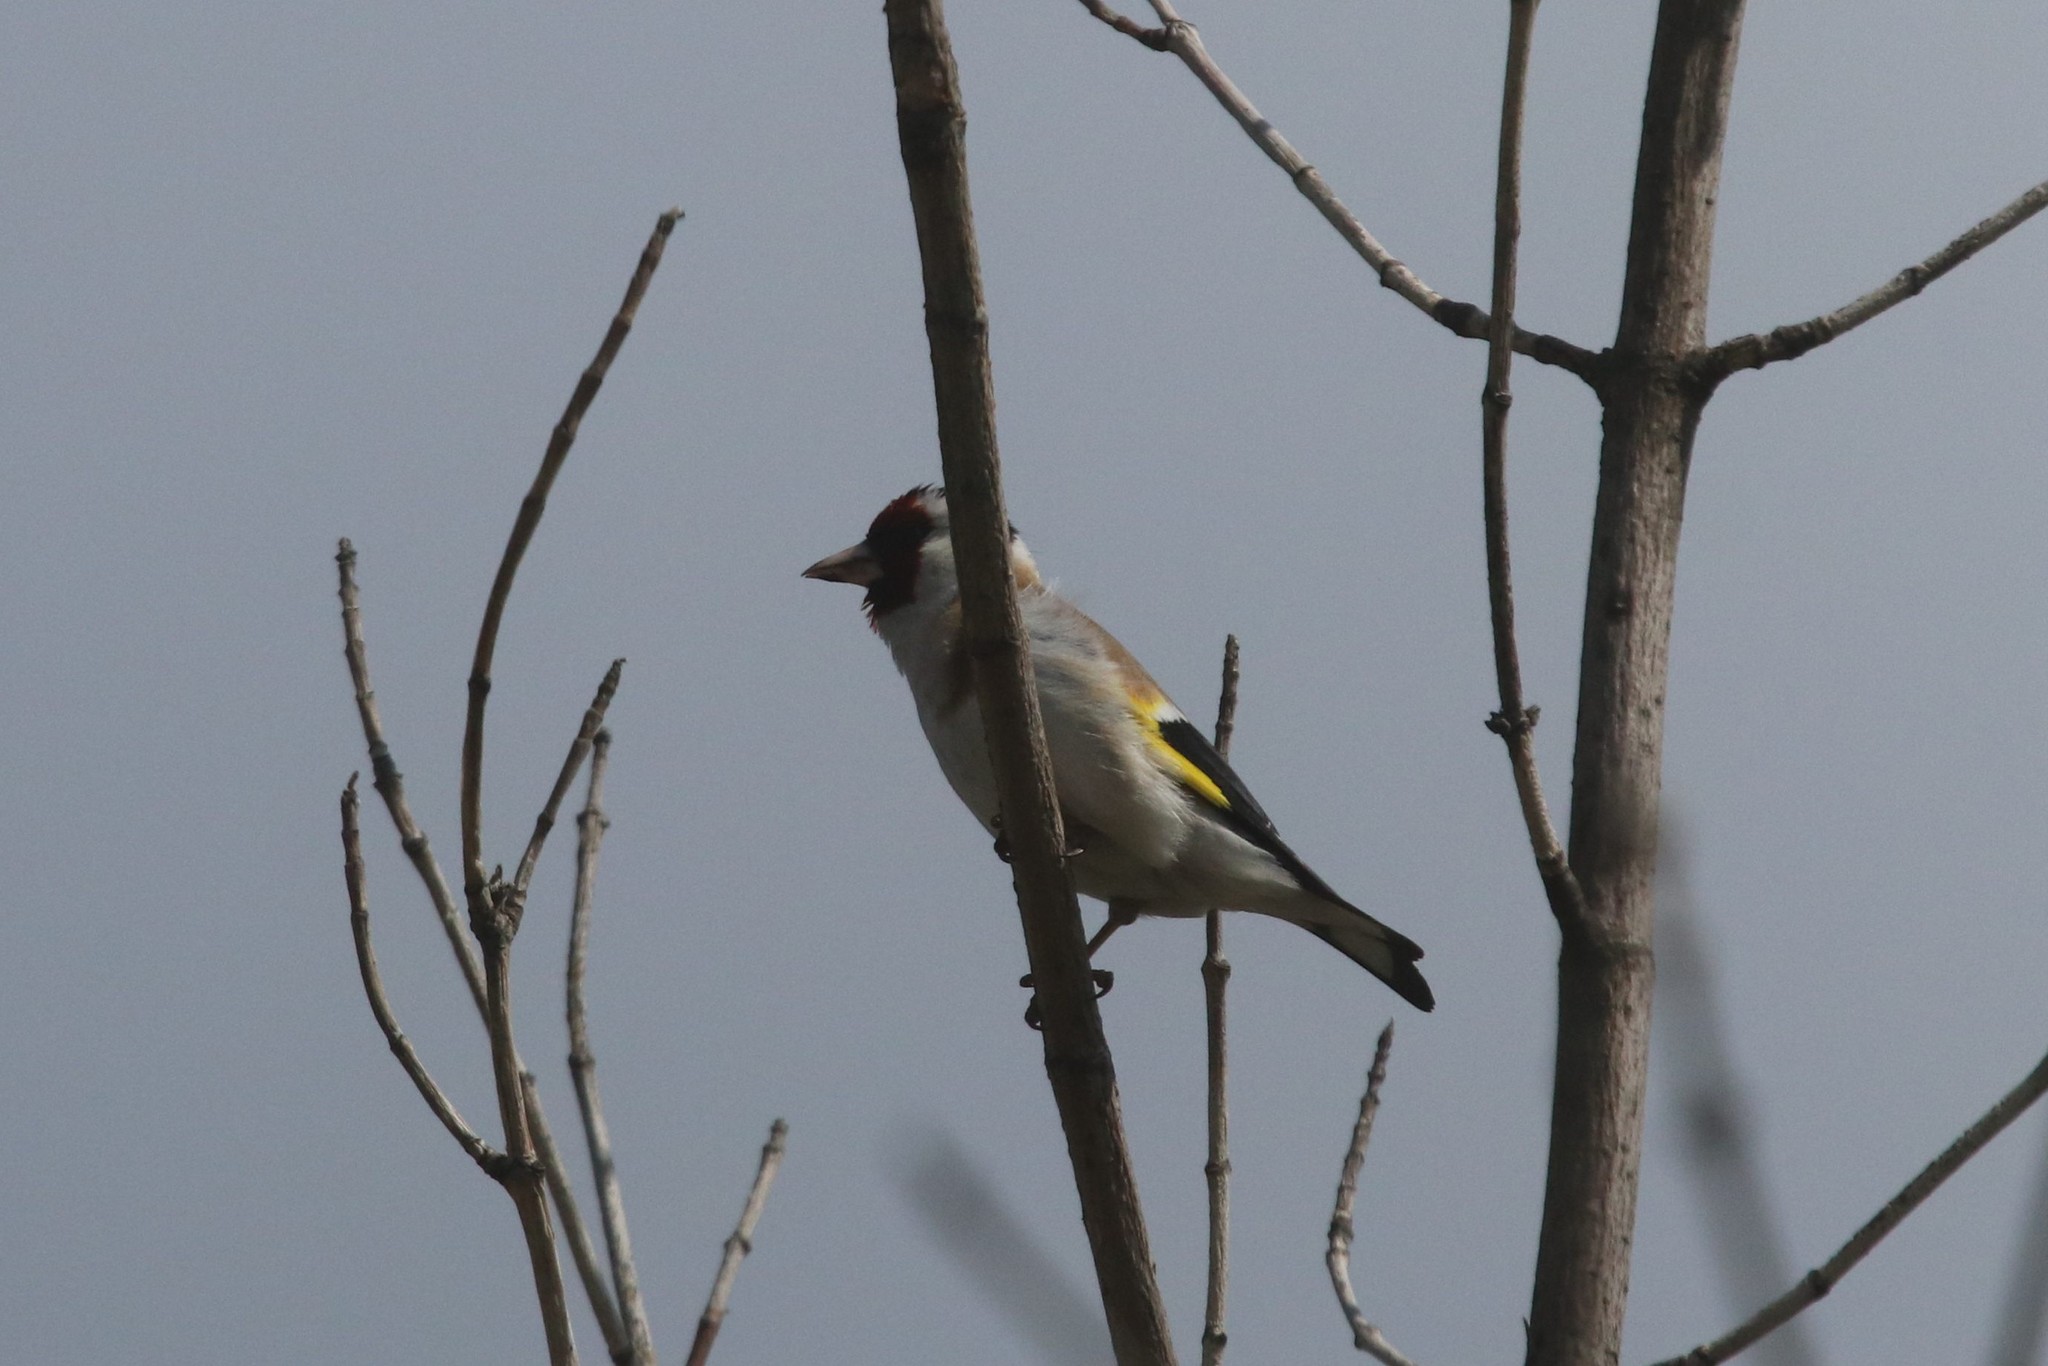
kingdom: Animalia
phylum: Chordata
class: Aves
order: Passeriformes
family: Fringillidae
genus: Carduelis
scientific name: Carduelis carduelis
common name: European goldfinch
